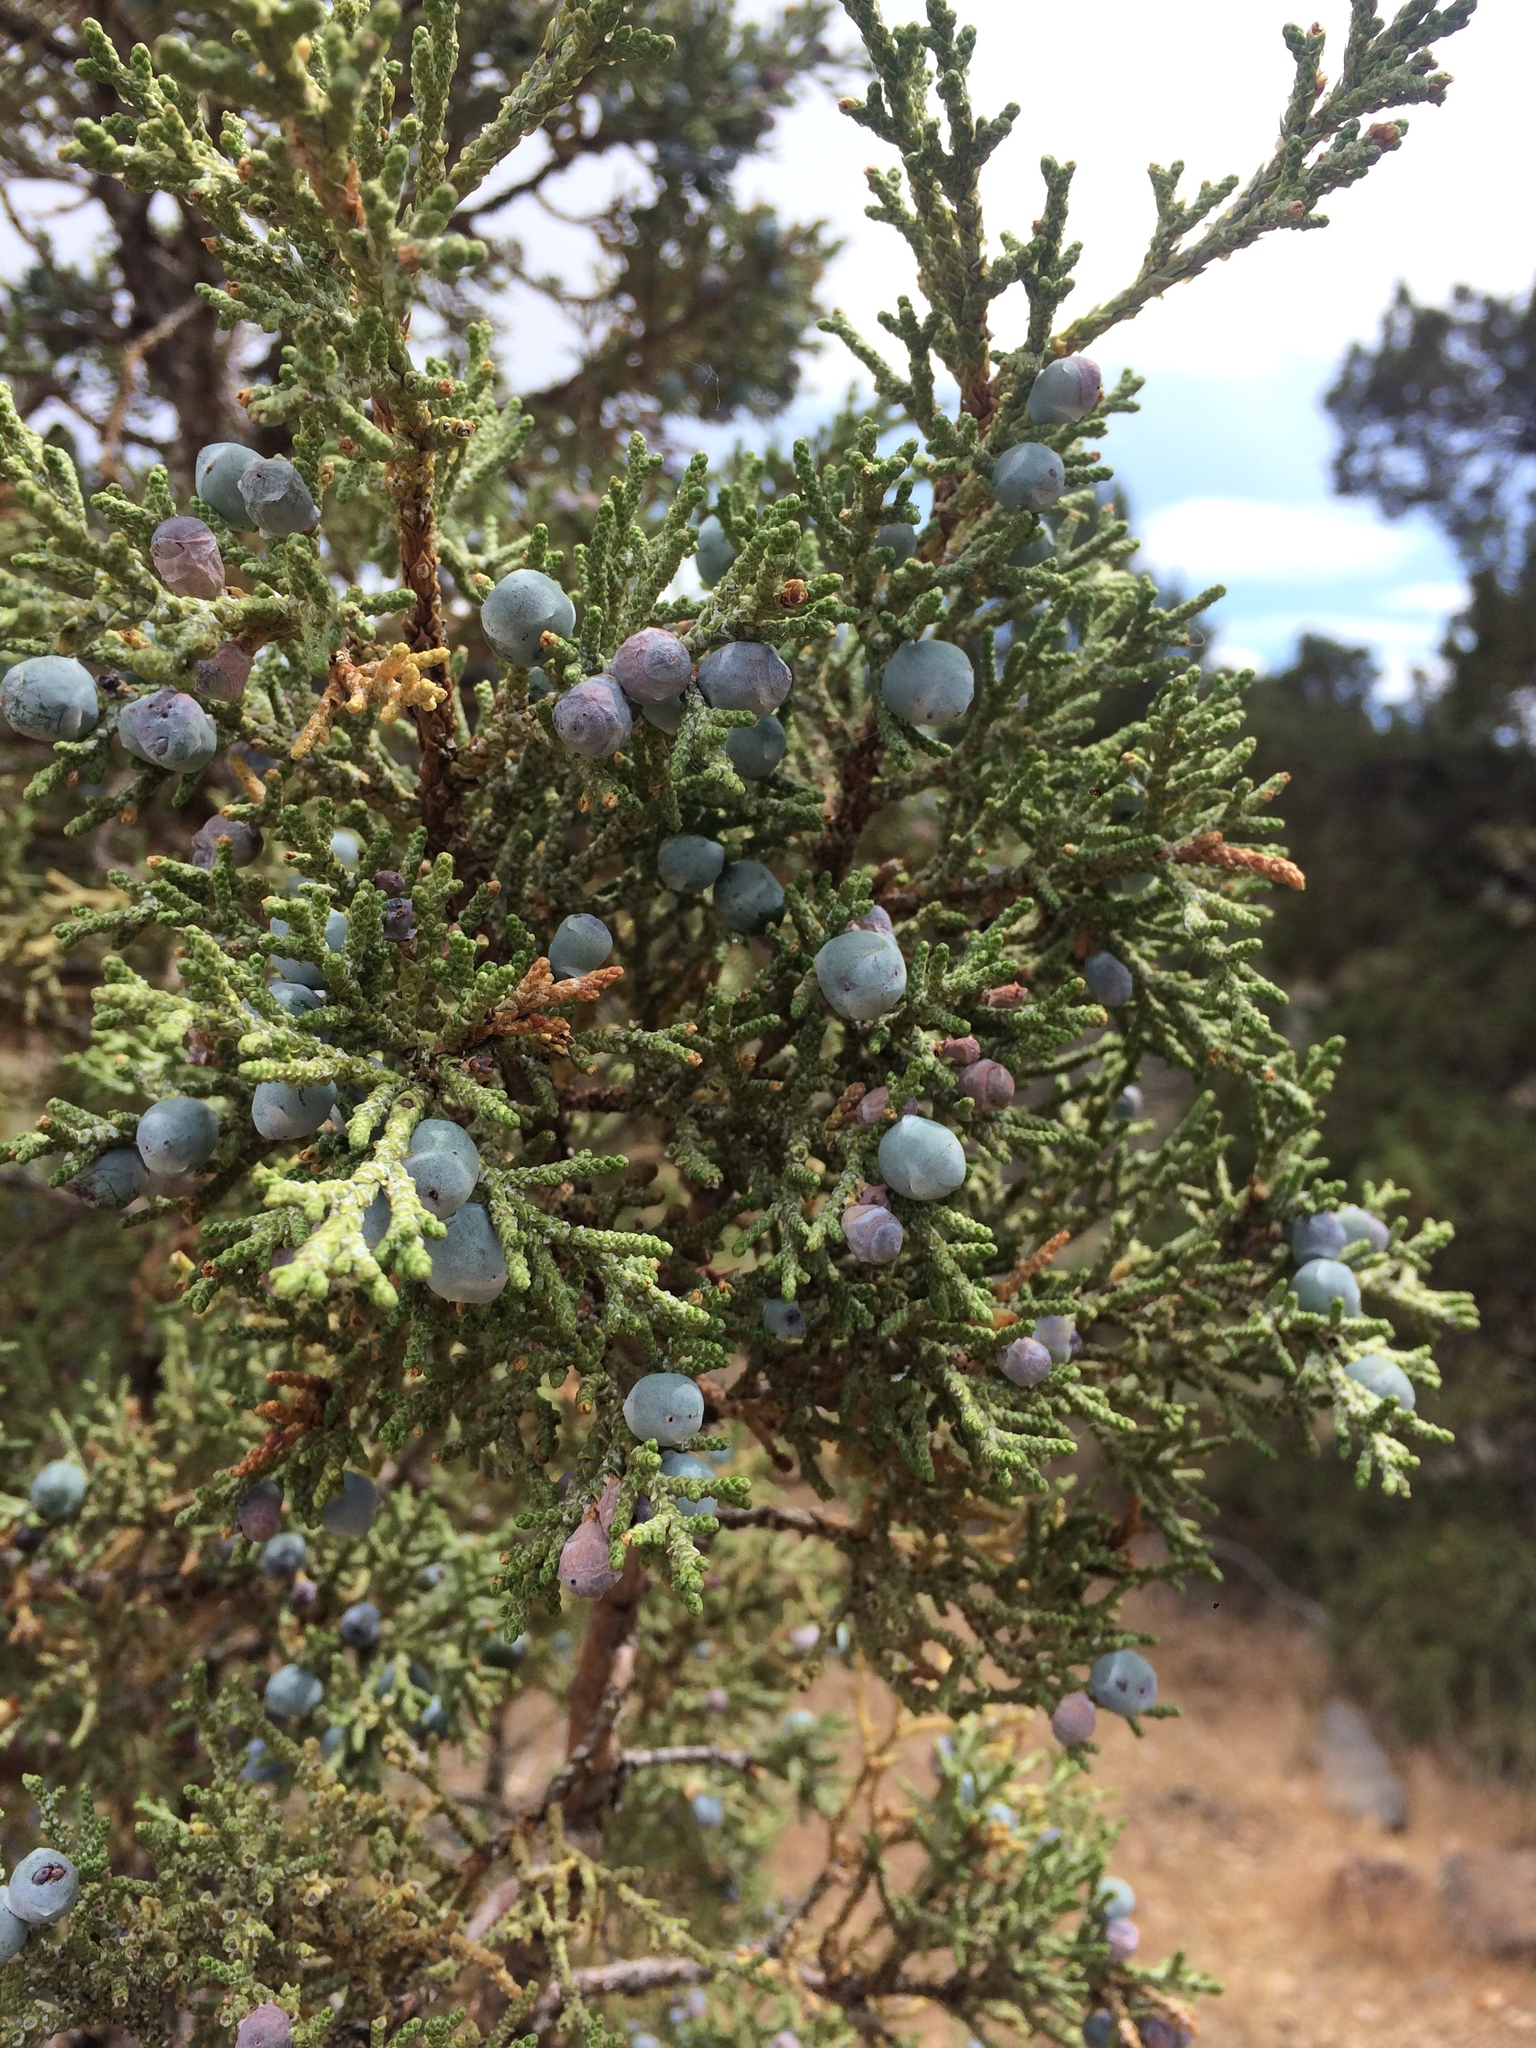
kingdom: Plantae
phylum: Tracheophyta
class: Pinopsida
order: Pinales
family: Cupressaceae
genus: Juniperus
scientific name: Juniperus occidentalis
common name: Western juniper
